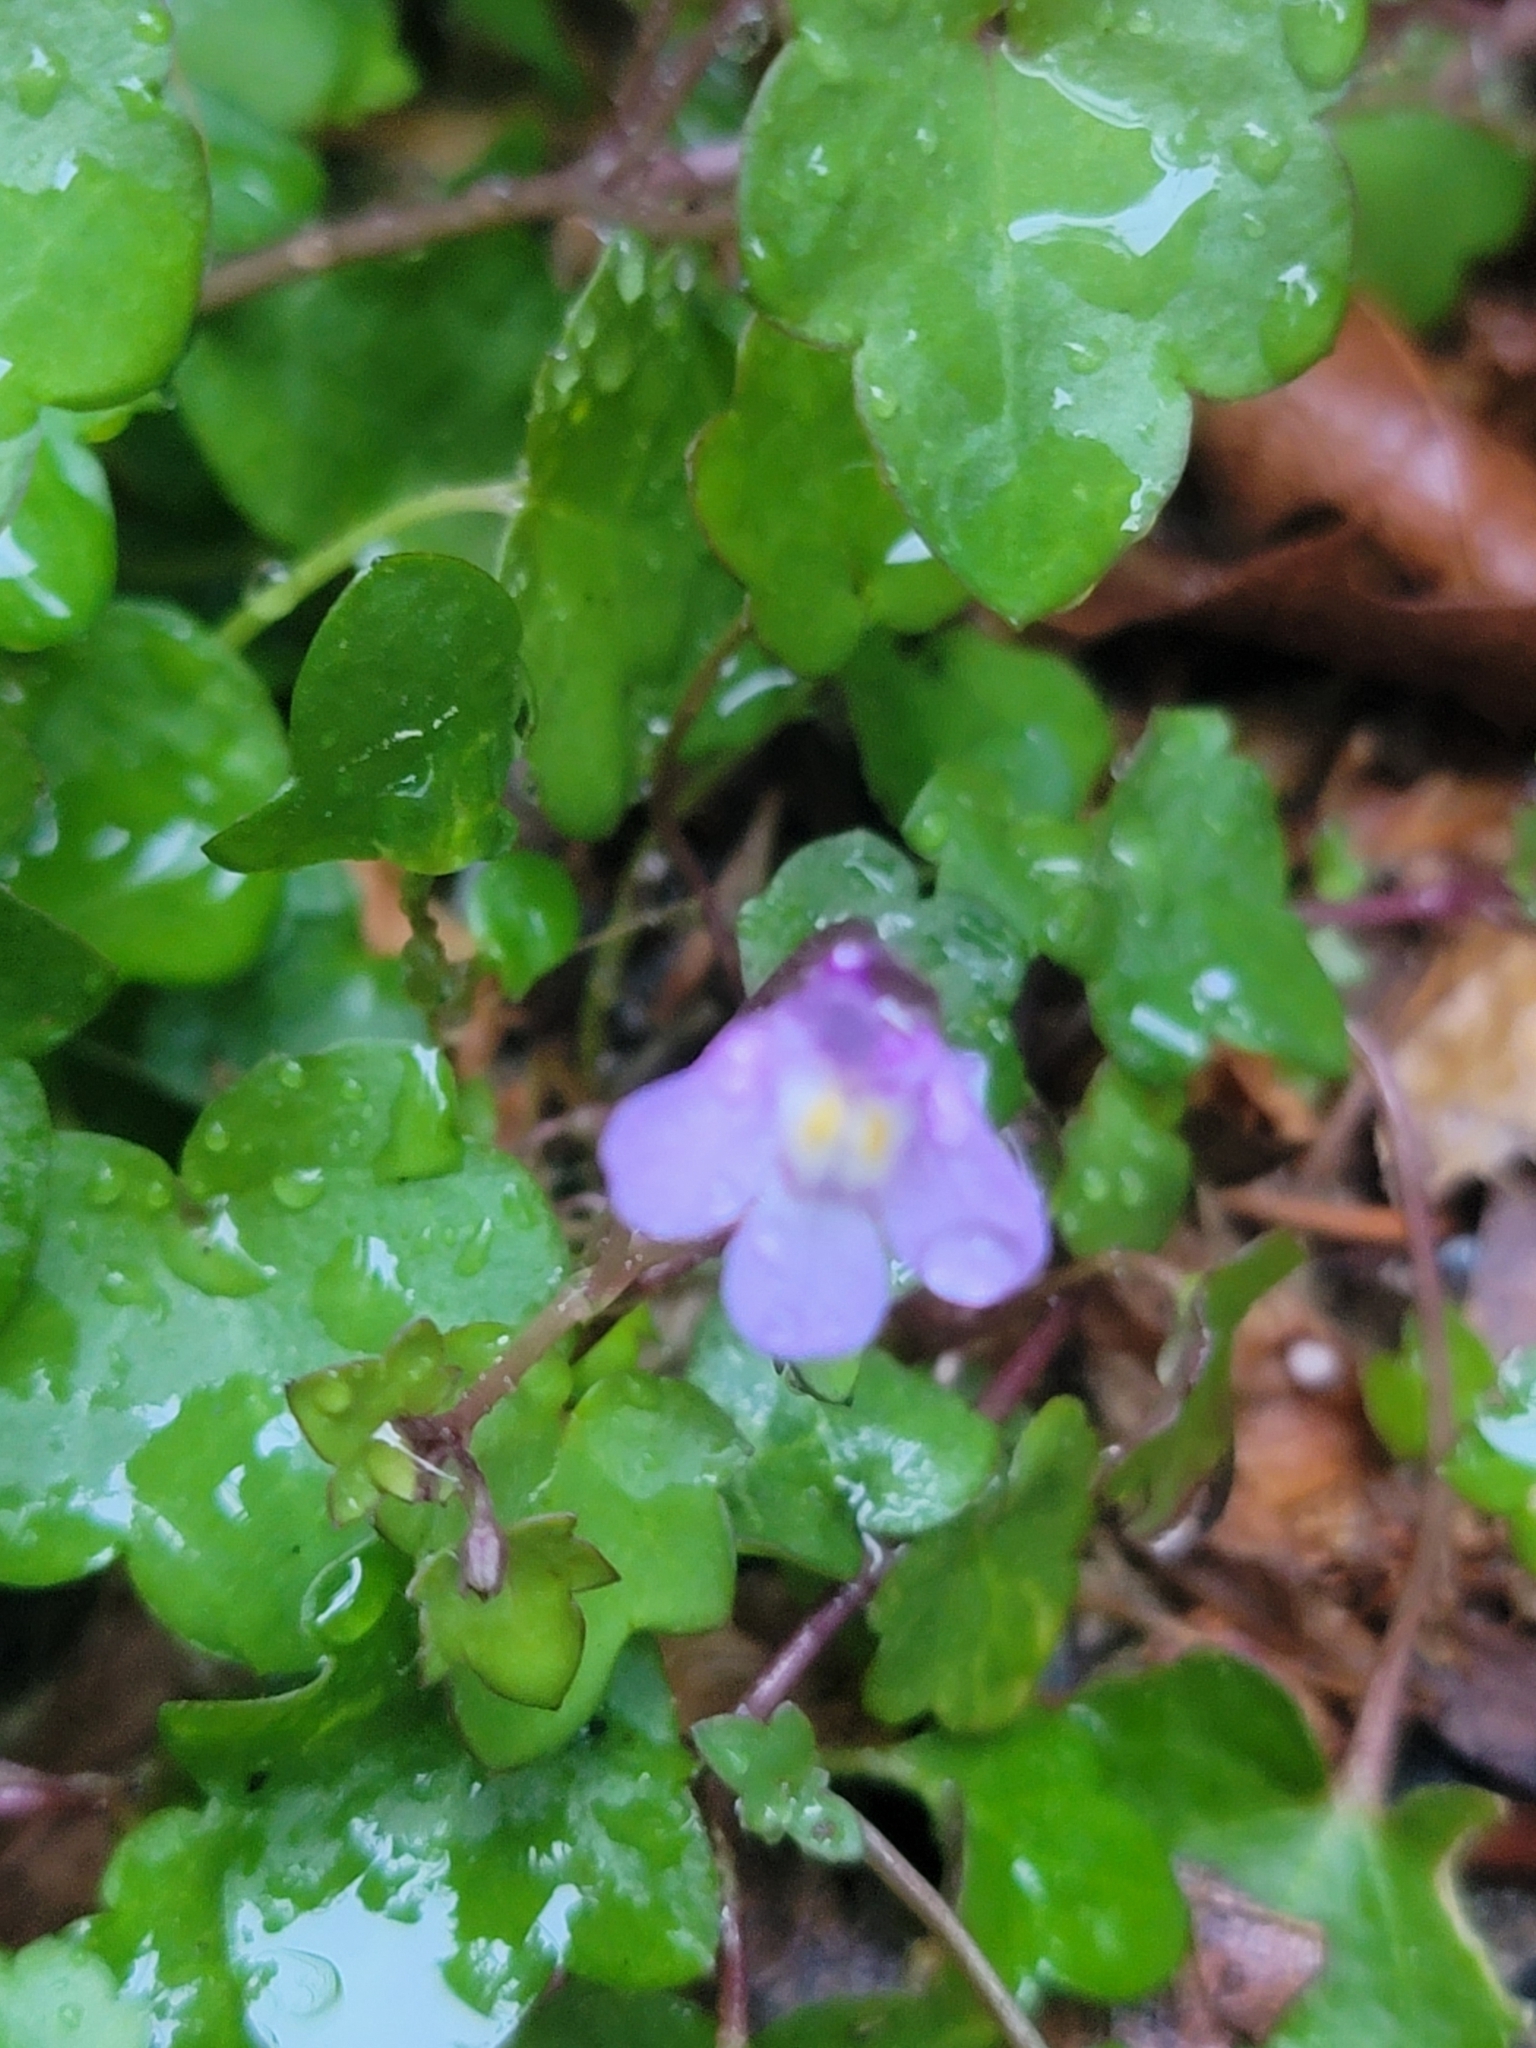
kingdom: Plantae
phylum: Tracheophyta
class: Magnoliopsida
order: Lamiales
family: Plantaginaceae
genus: Cymbalaria
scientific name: Cymbalaria muralis
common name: Ivy-leaved toadflax
